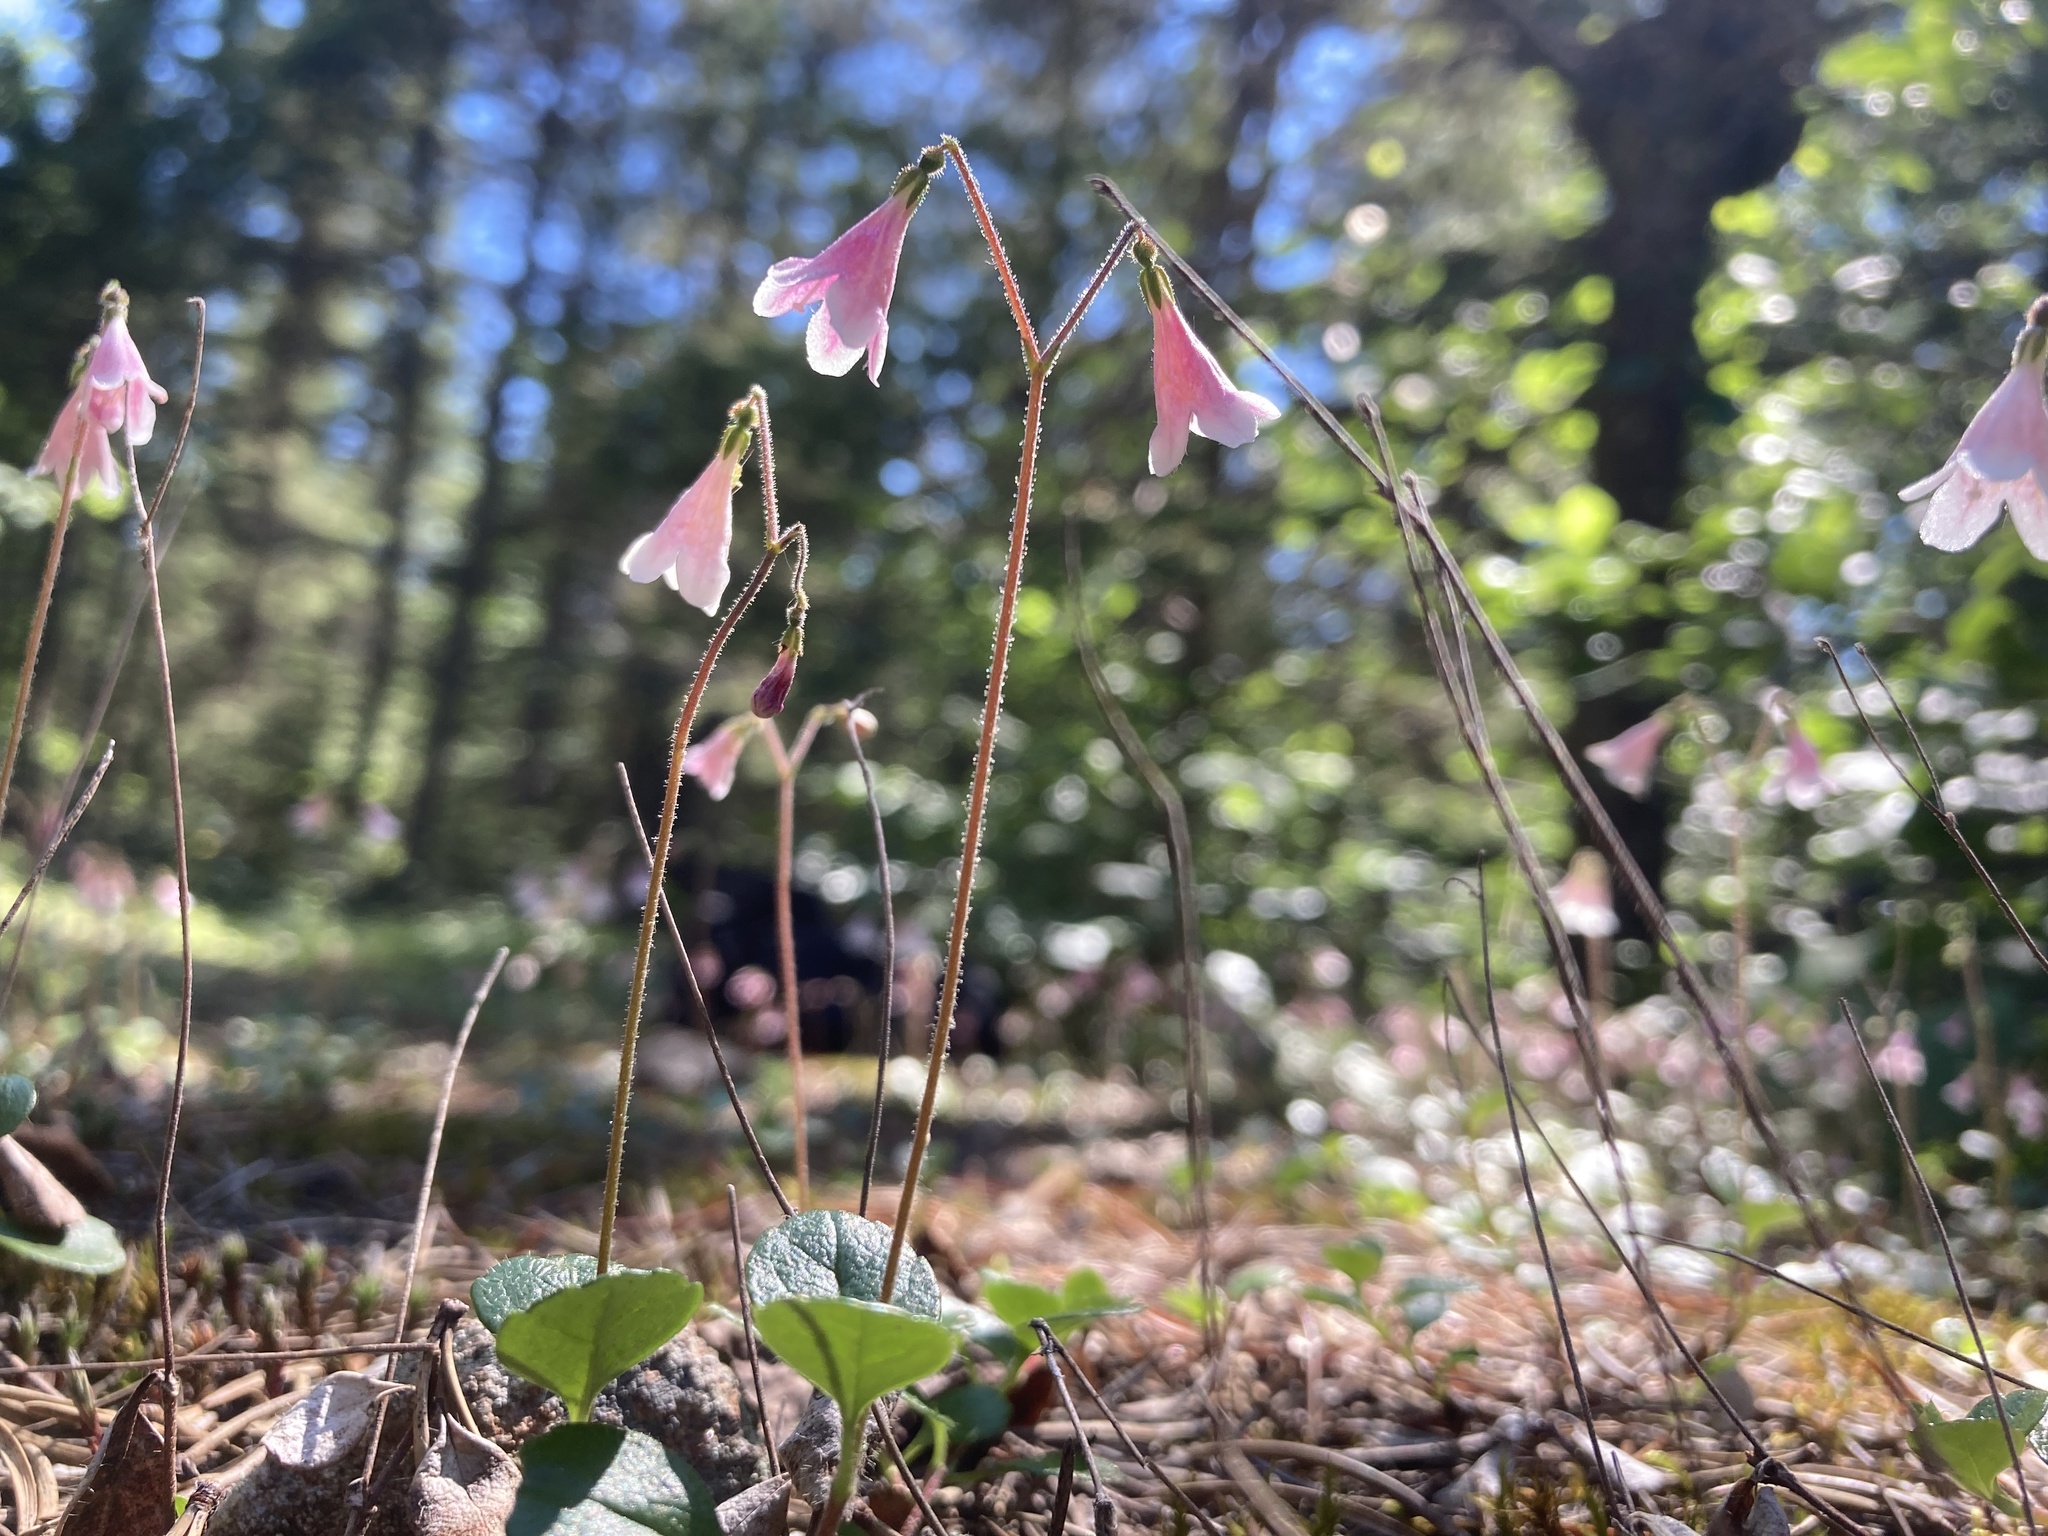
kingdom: Plantae
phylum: Tracheophyta
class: Magnoliopsida
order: Dipsacales
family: Caprifoliaceae
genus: Linnaea
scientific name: Linnaea borealis
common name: Twinflower
